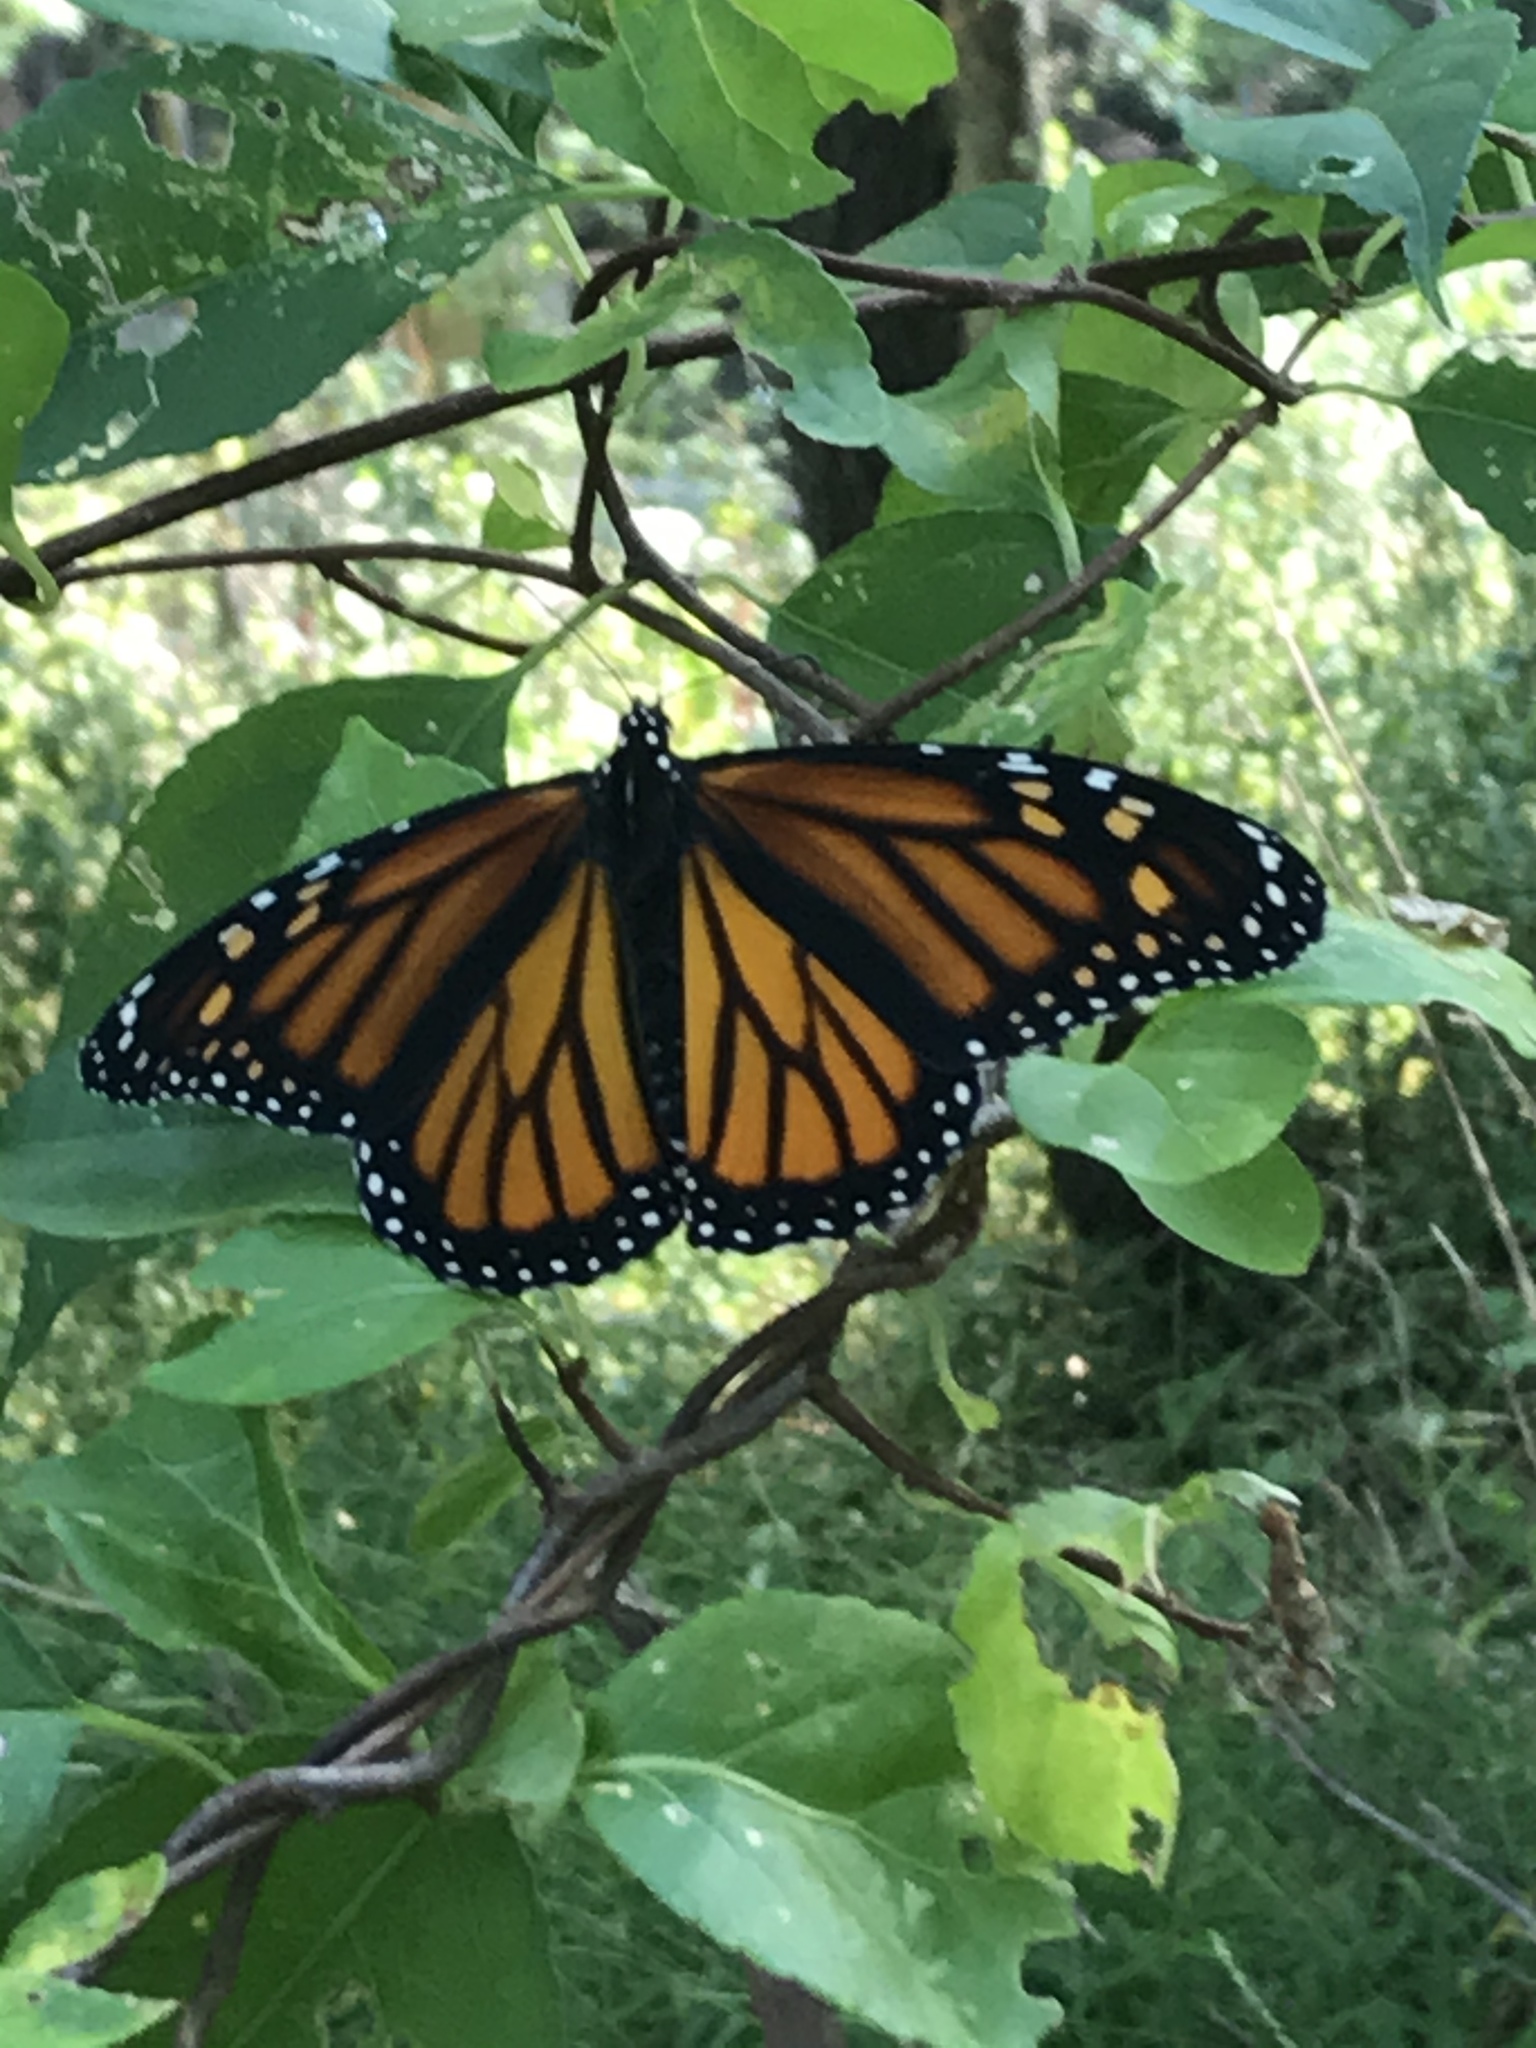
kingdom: Animalia
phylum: Arthropoda
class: Insecta
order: Lepidoptera
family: Nymphalidae
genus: Danaus
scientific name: Danaus plexippus
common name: Monarch
